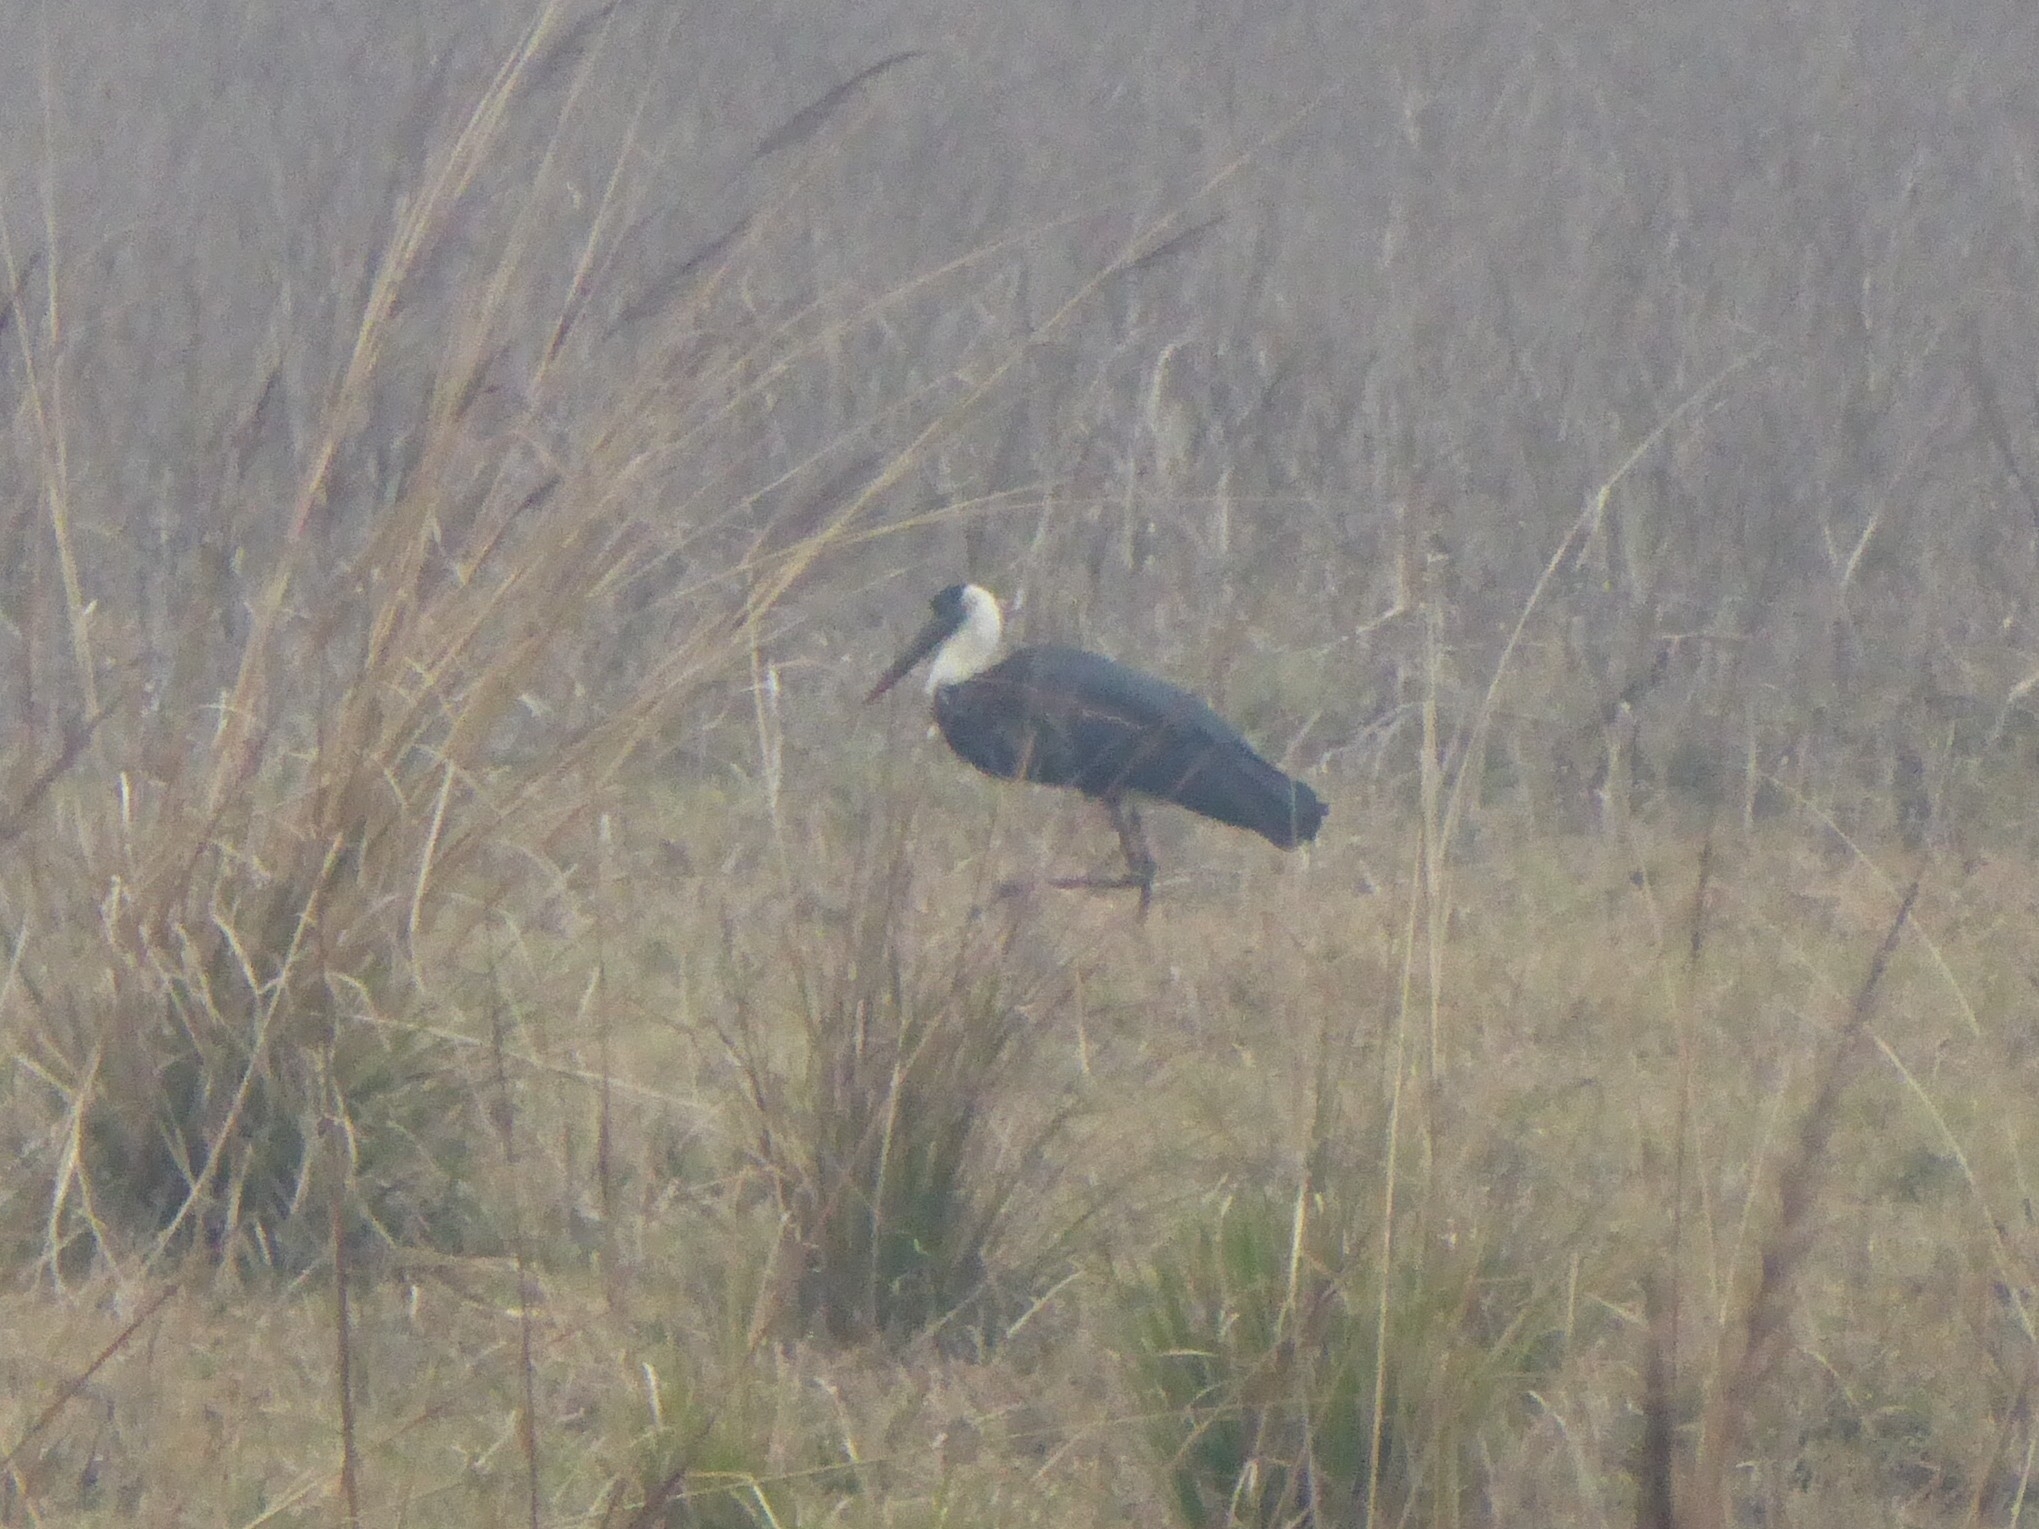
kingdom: Animalia
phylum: Chordata
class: Aves
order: Ciconiiformes
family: Ciconiidae
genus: Ciconia
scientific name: Ciconia episcopus
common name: Woolly-necked stork
